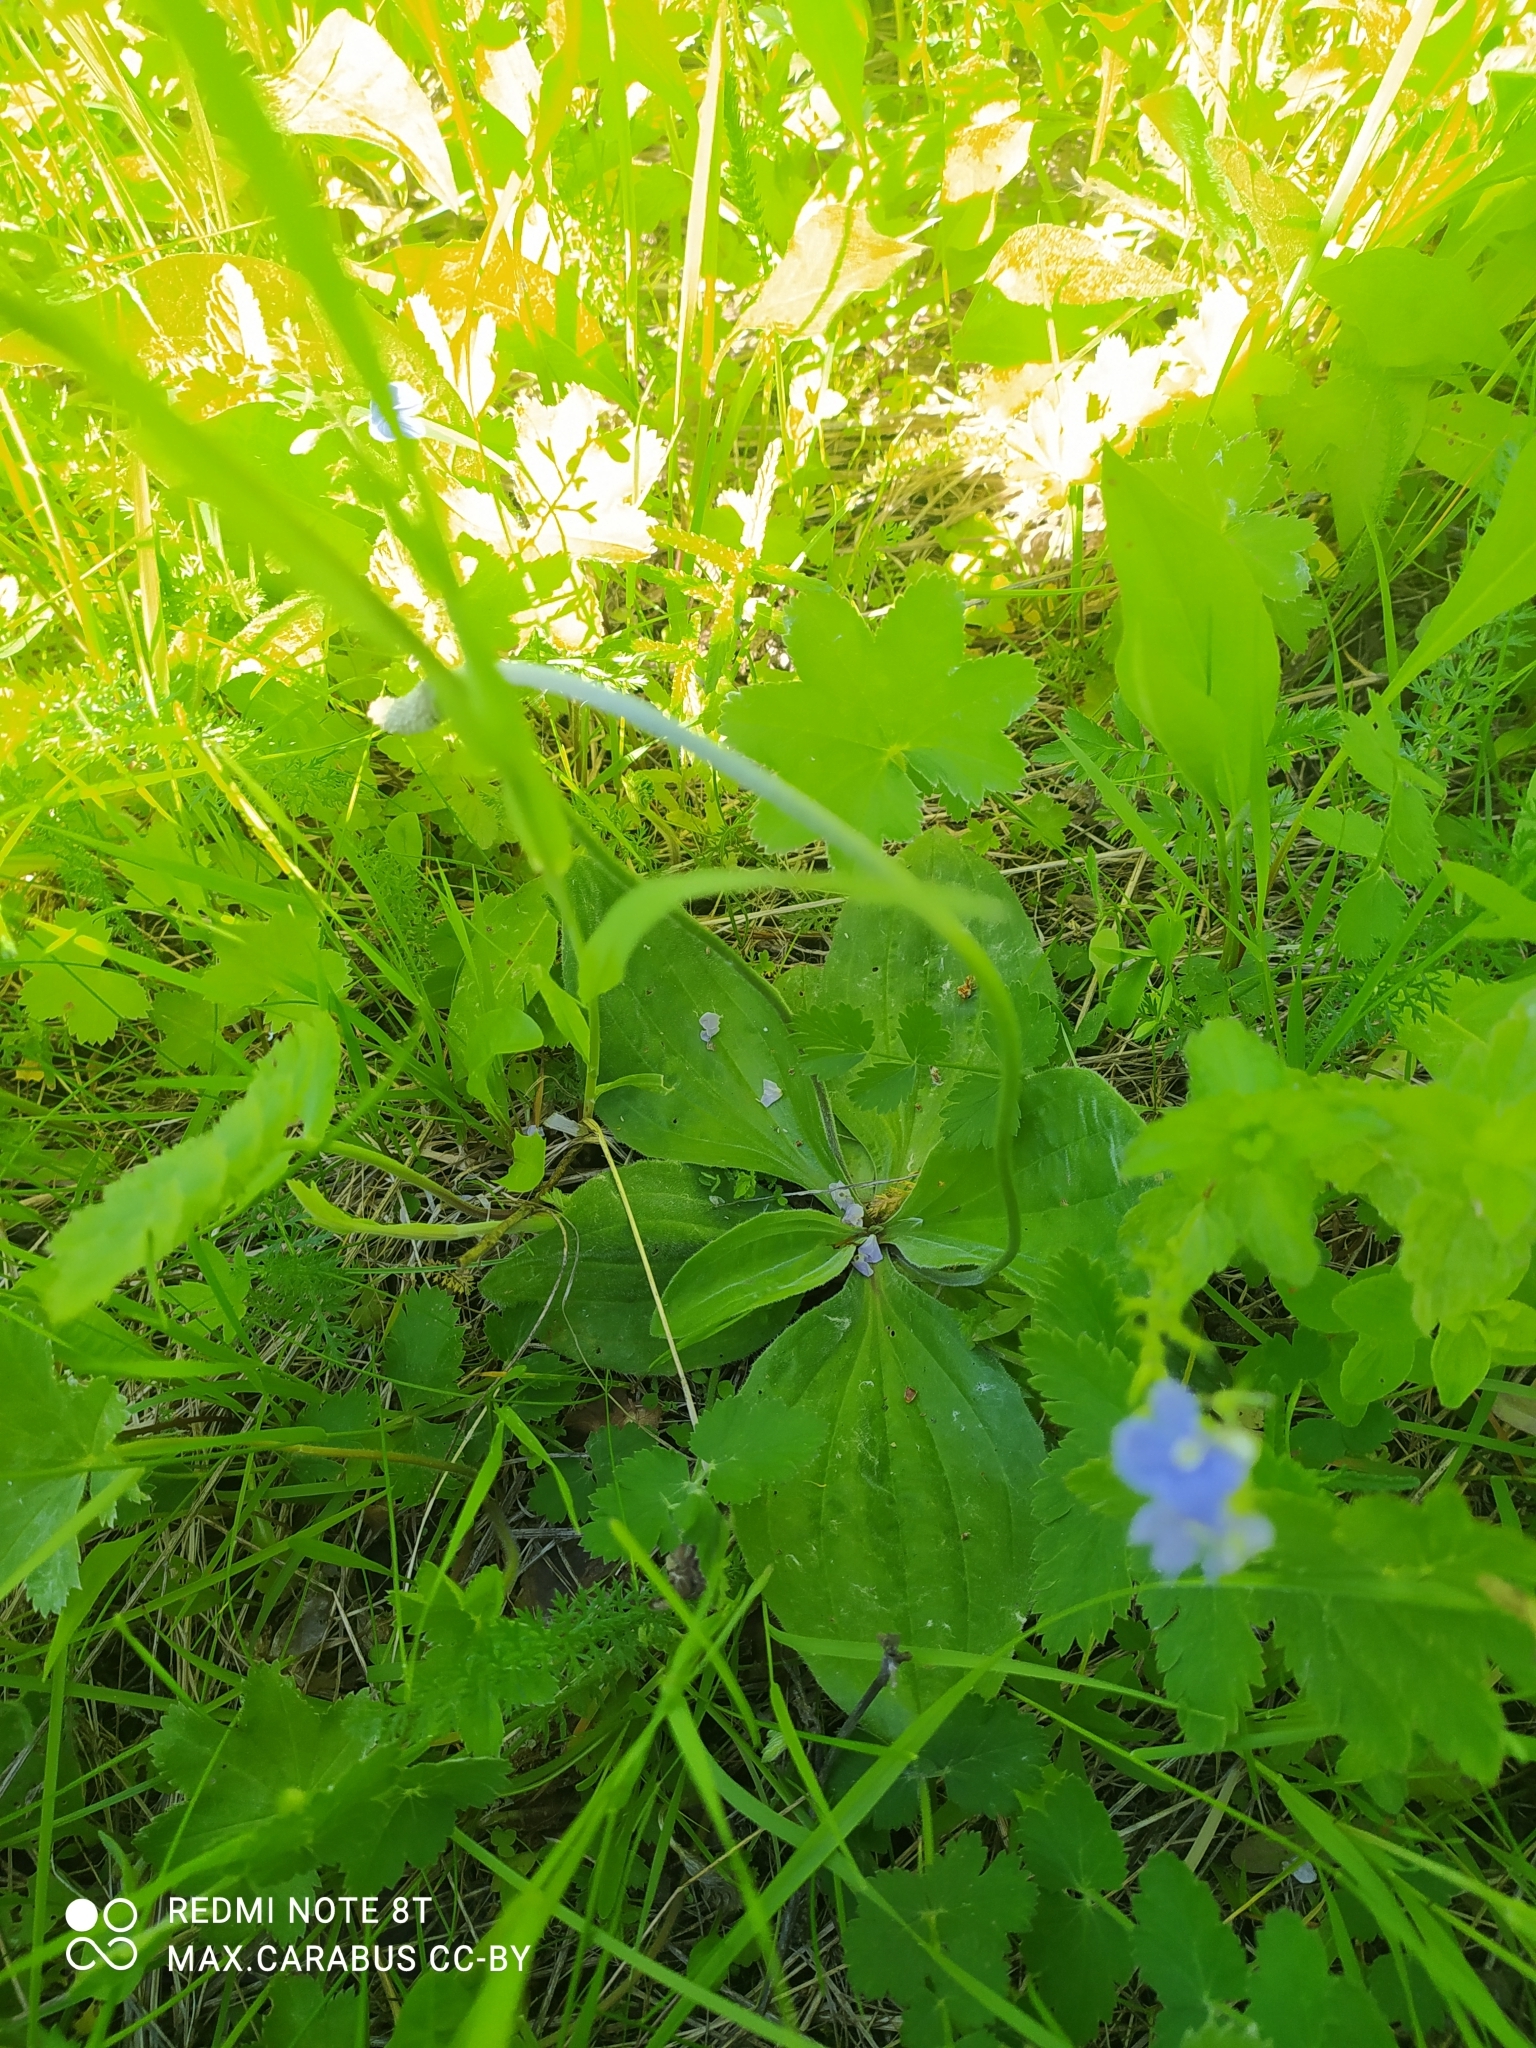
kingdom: Plantae
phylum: Tracheophyta
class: Magnoliopsida
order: Lamiales
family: Plantaginaceae
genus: Plantago
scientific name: Plantago media
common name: Hoary plantain
